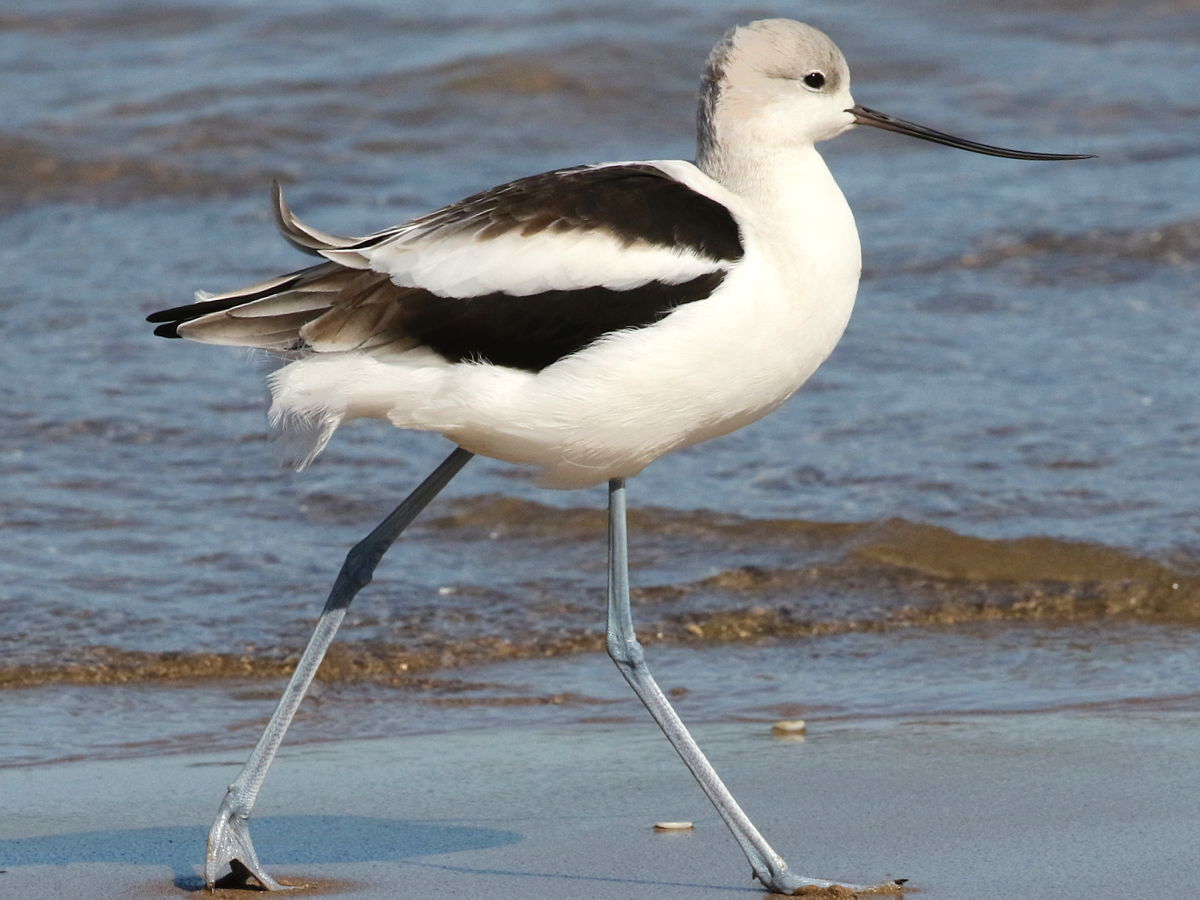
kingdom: Animalia
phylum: Chordata
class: Aves
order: Charadriiformes
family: Recurvirostridae
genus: Recurvirostra
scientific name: Recurvirostra americana
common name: American avocet
